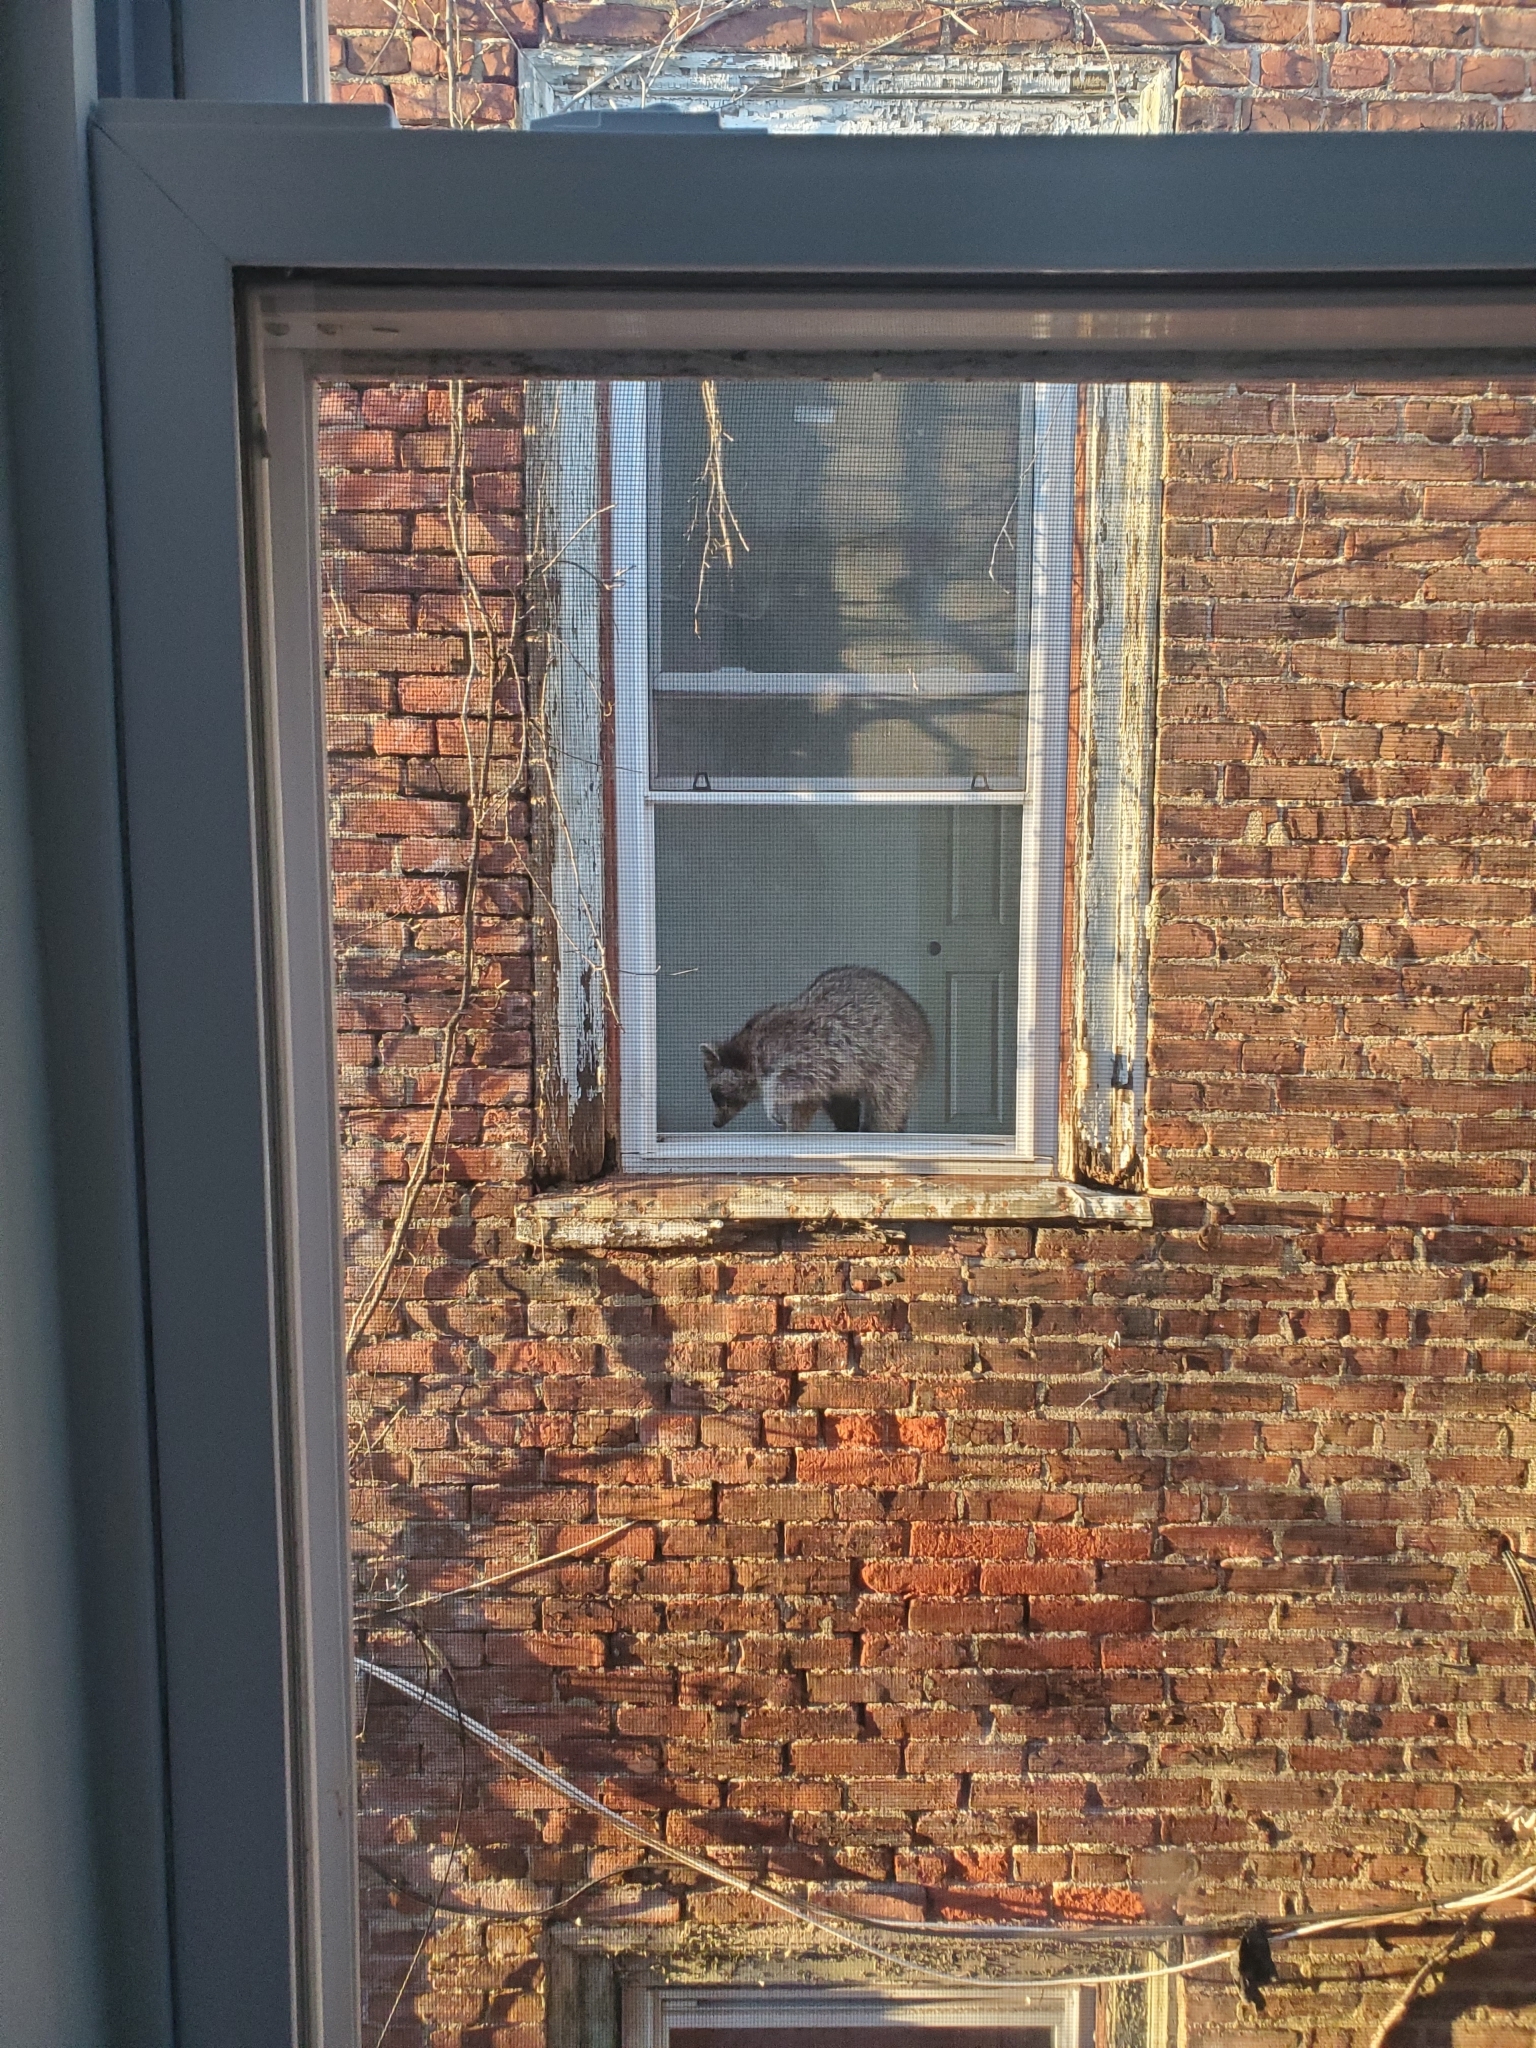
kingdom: Animalia
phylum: Chordata
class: Mammalia
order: Carnivora
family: Procyonidae
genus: Procyon
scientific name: Procyon lotor
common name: Raccoon
